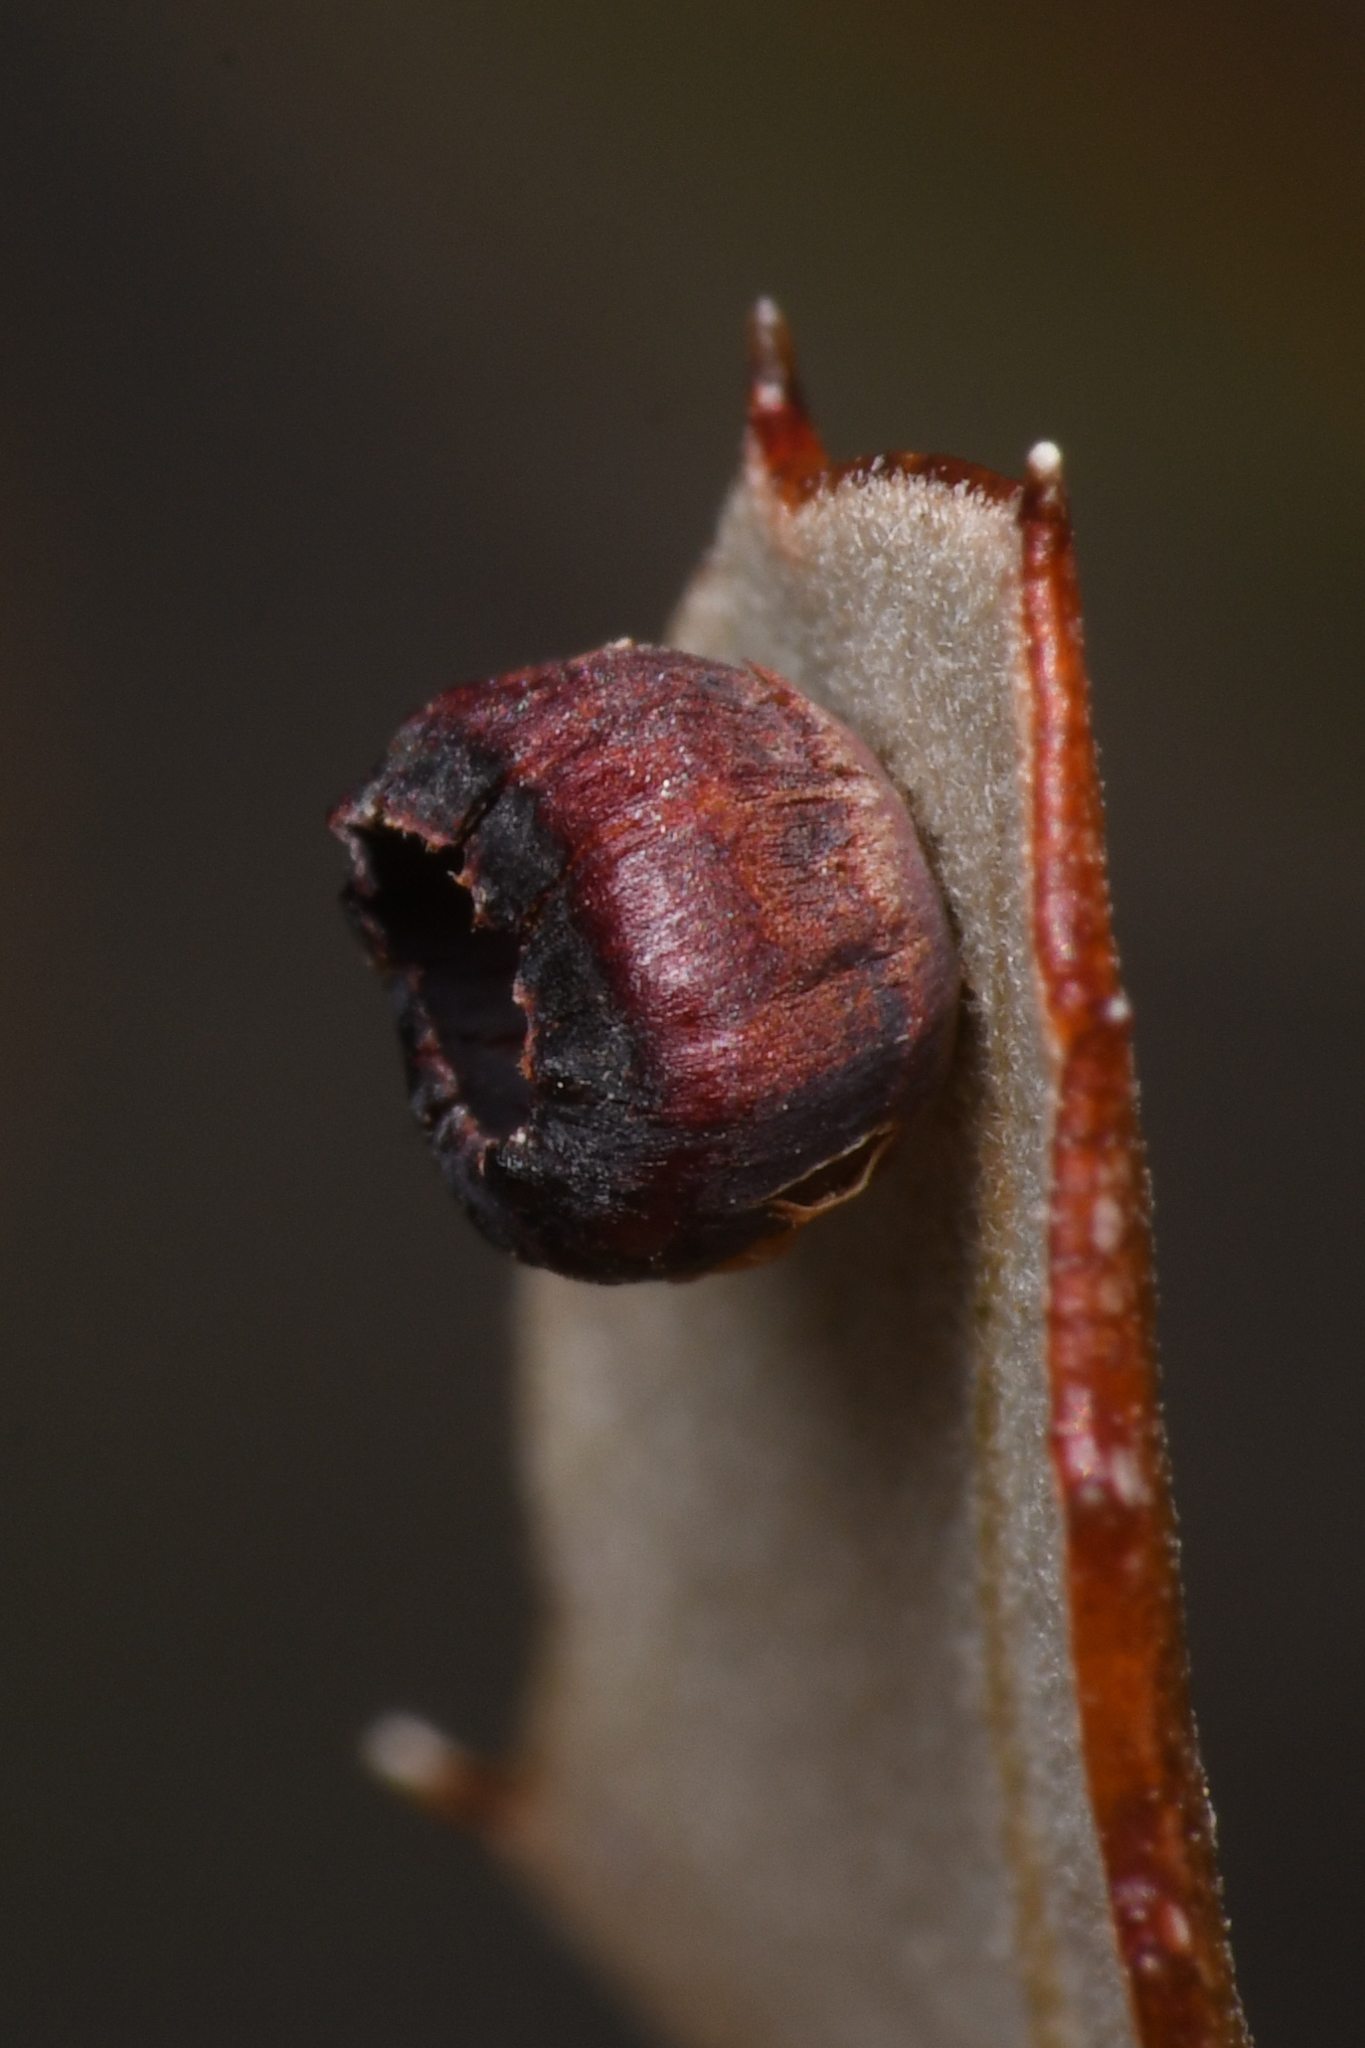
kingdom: Animalia
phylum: Arthropoda
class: Insecta
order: Hymenoptera
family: Cynipidae
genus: Phylloteras
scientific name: Phylloteras
